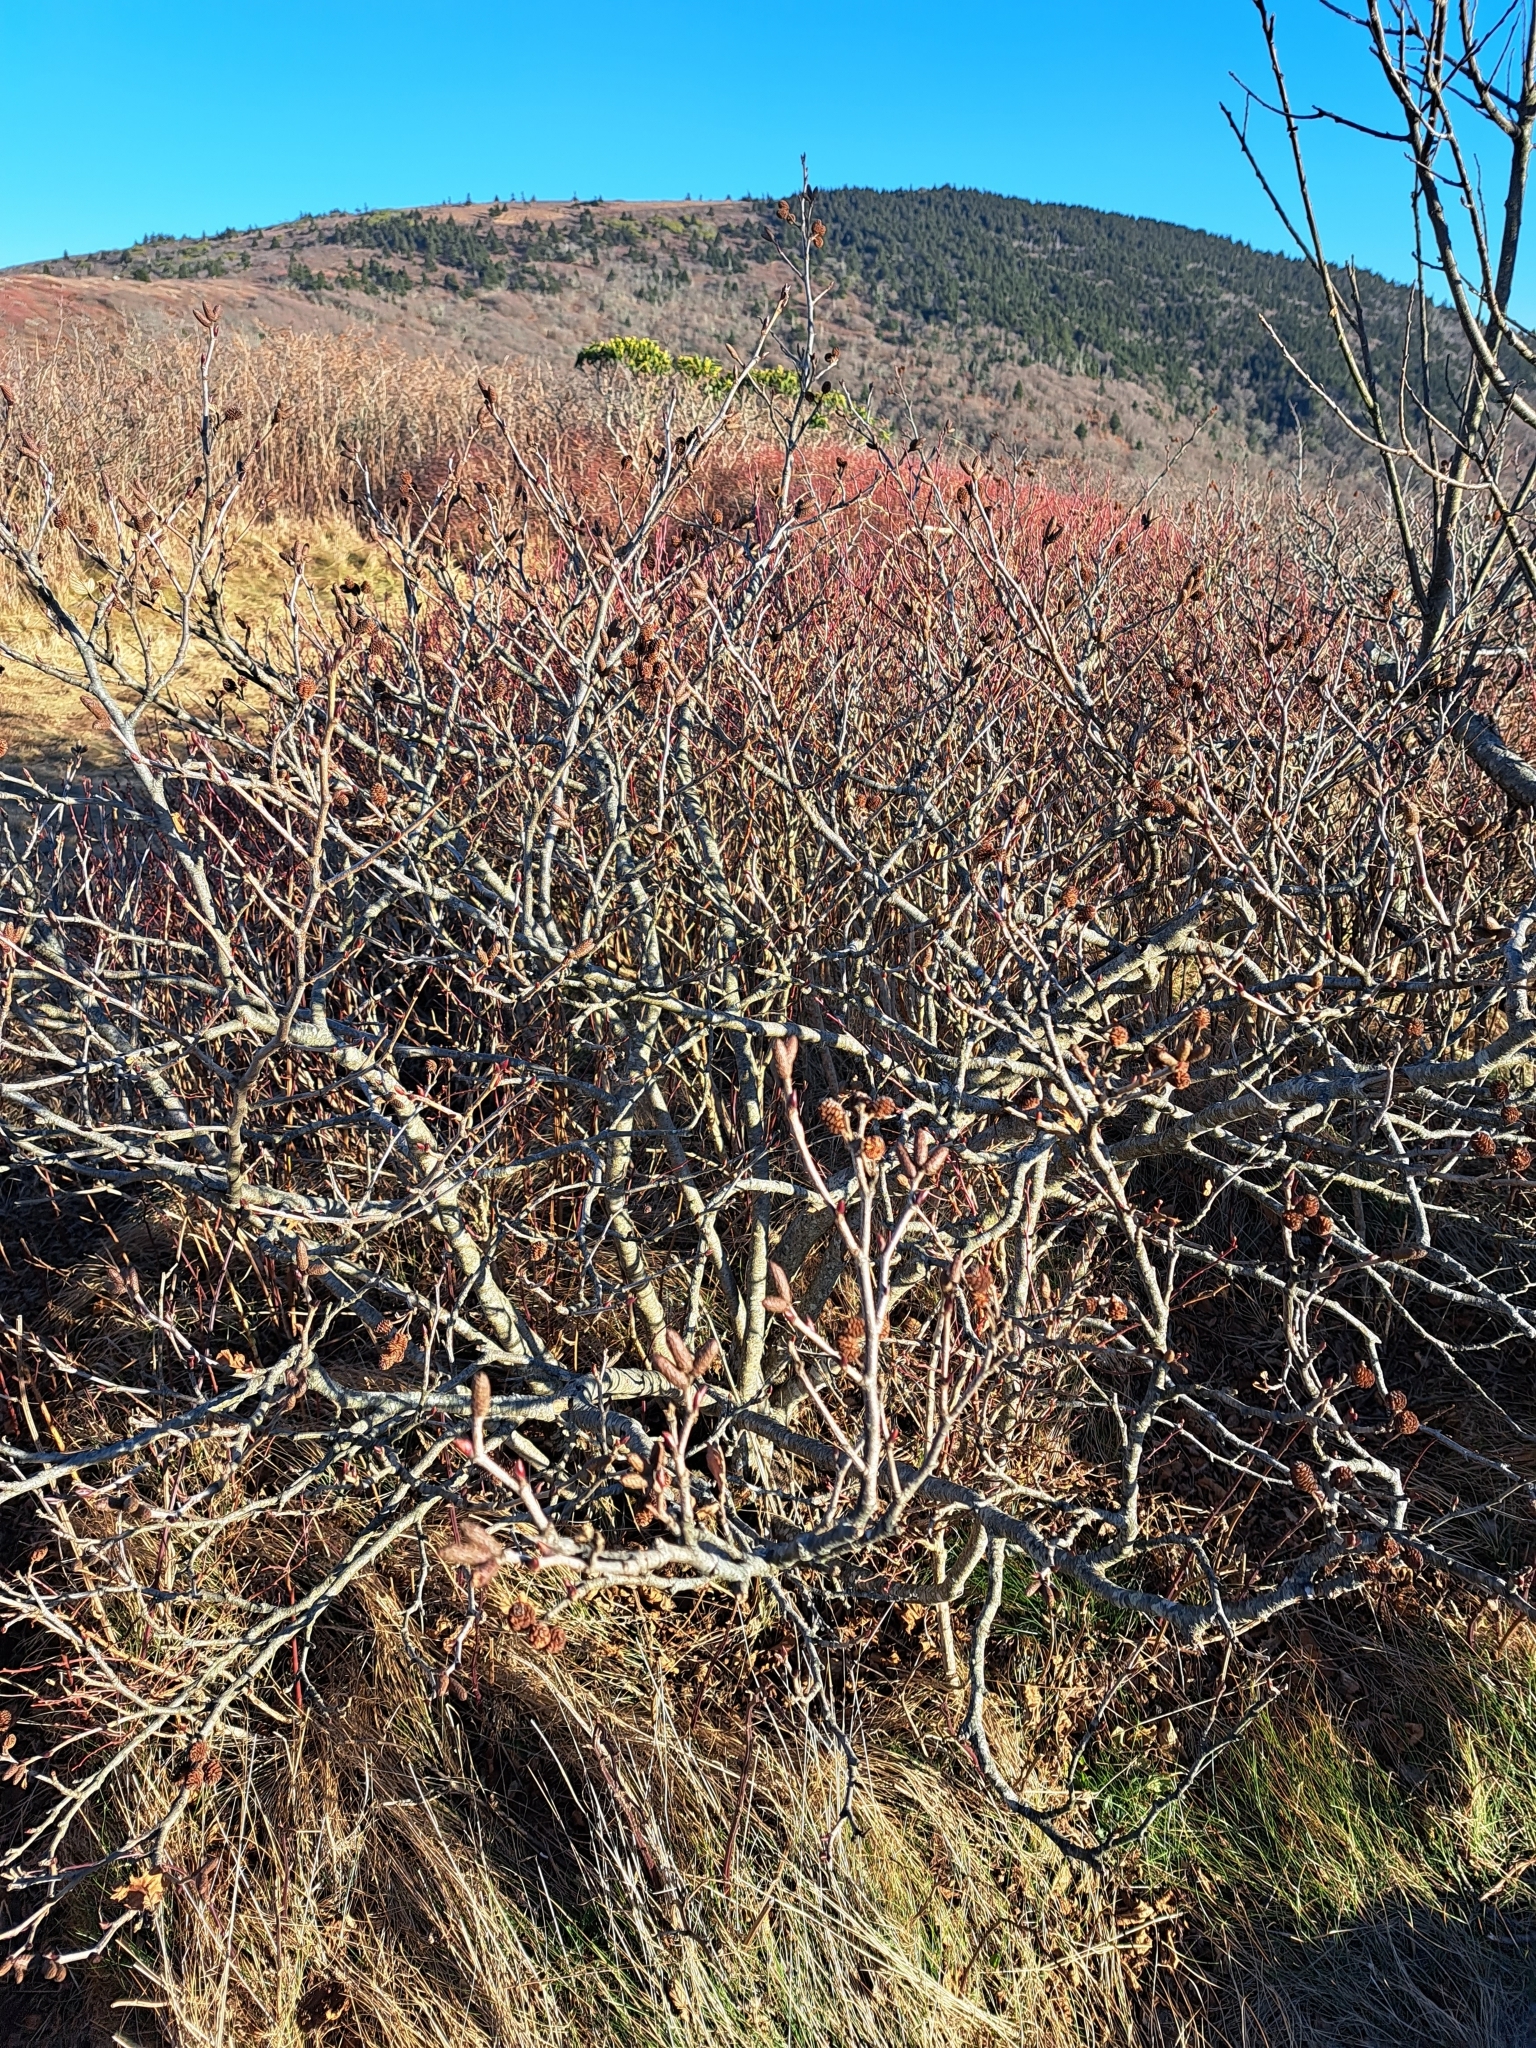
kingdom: Plantae
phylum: Tracheophyta
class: Magnoliopsida
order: Fagales
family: Betulaceae
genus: Alnus
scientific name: Alnus alnobetula
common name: Green alder
